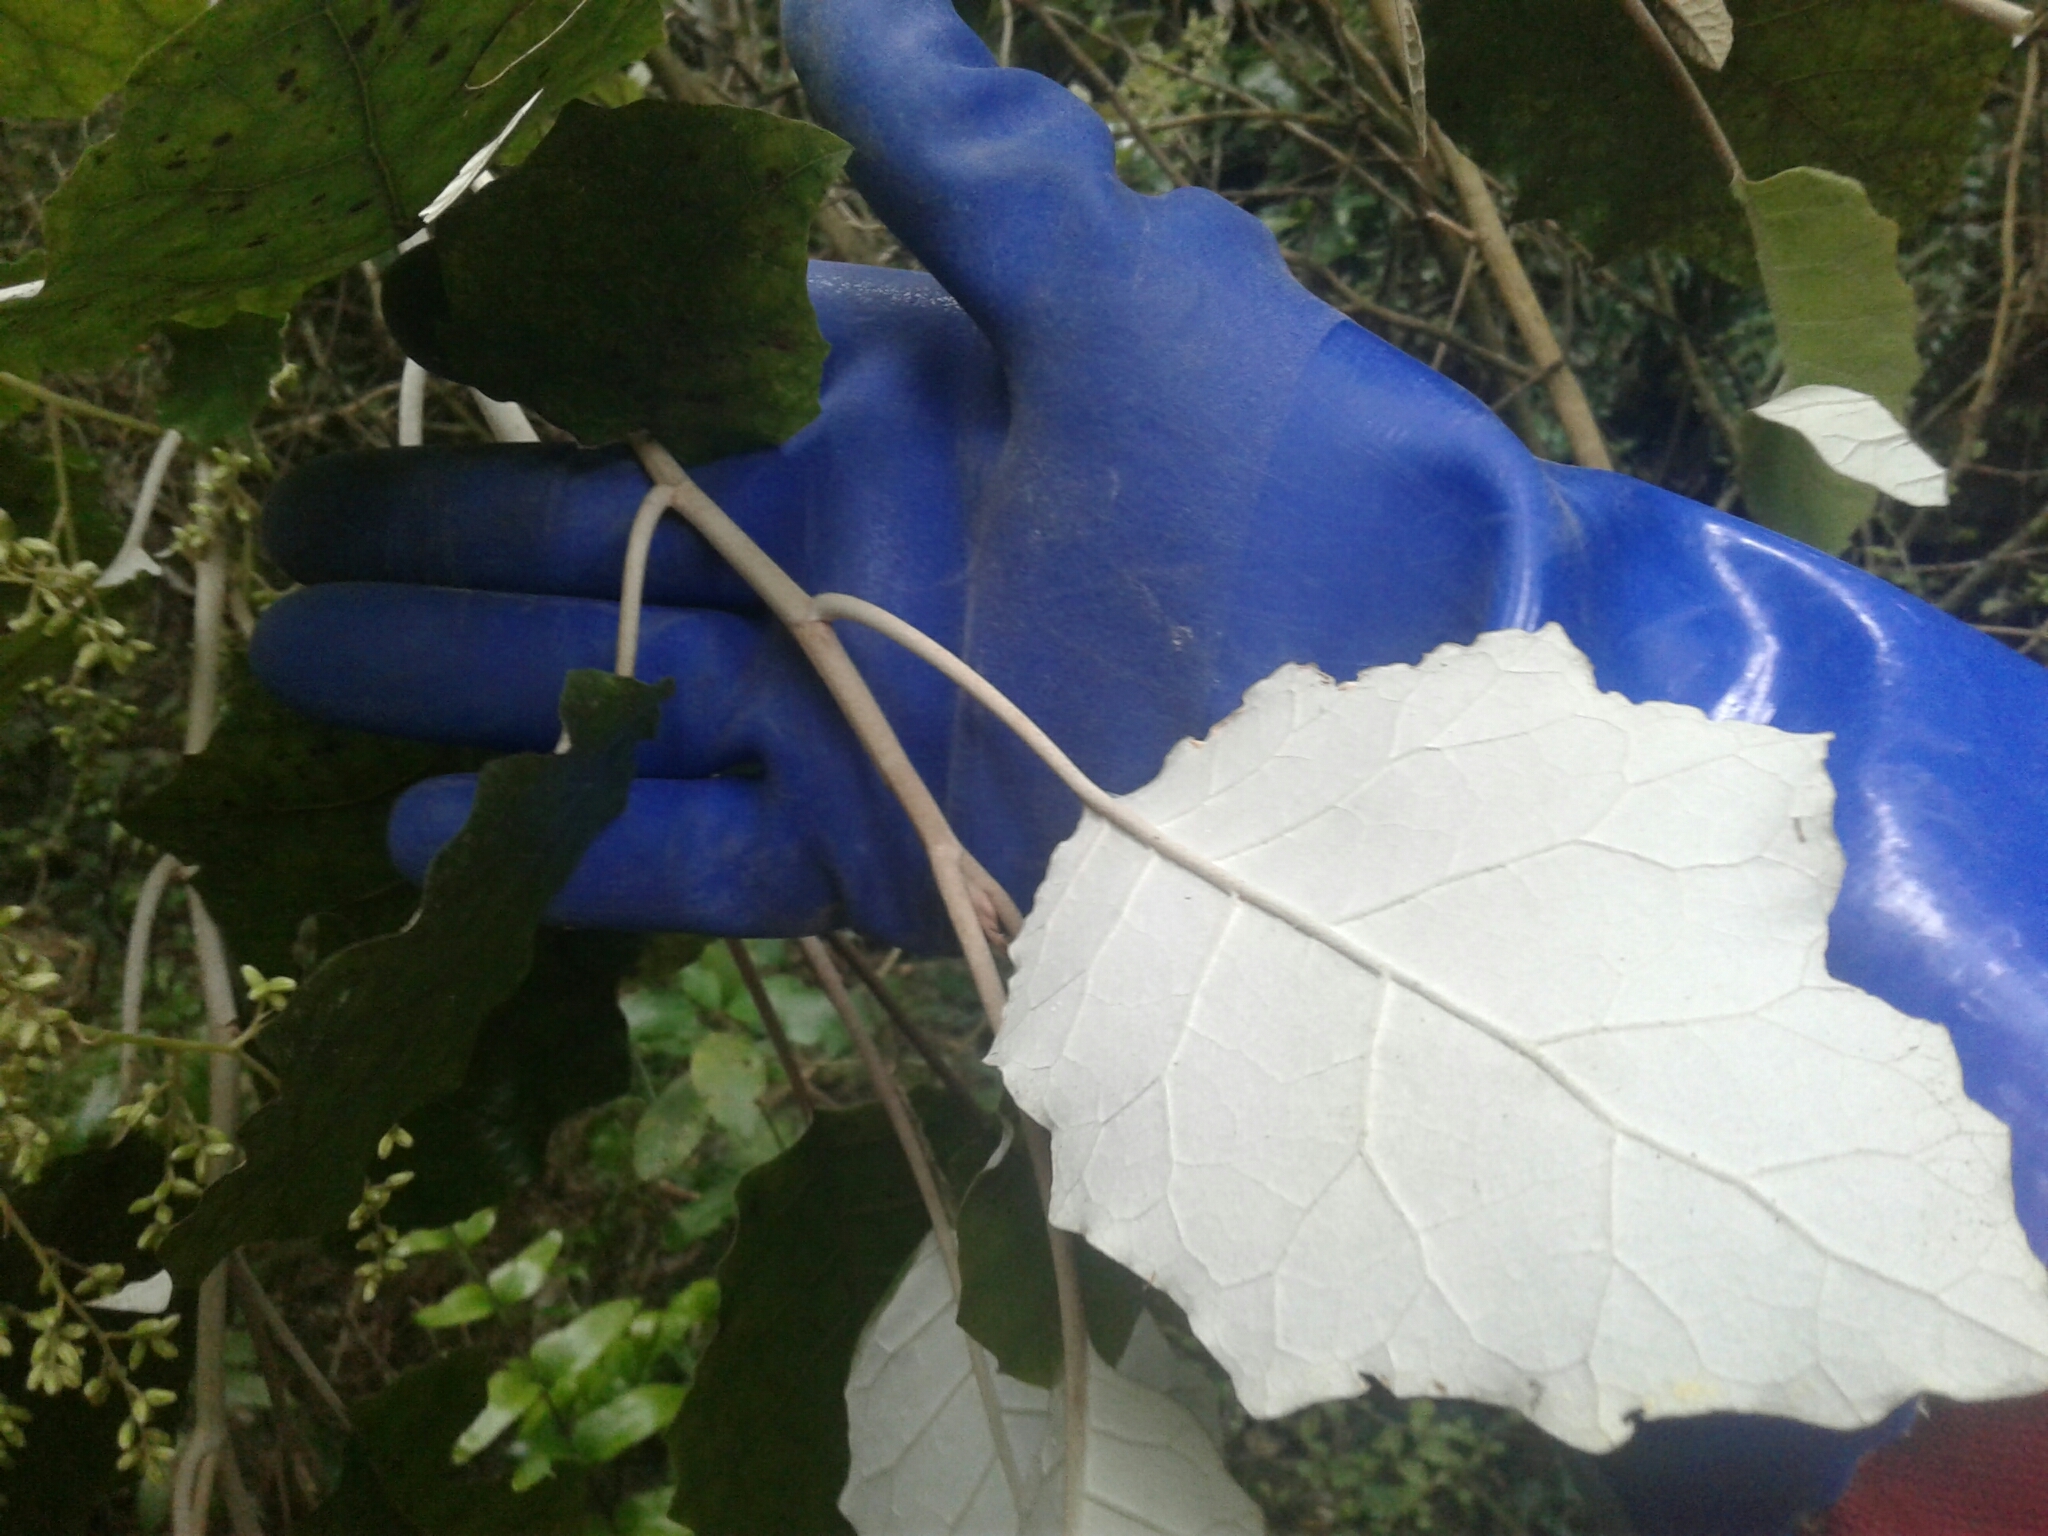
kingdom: Plantae
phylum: Tracheophyta
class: Magnoliopsida
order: Asterales
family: Asteraceae
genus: Brachyglottis
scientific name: Brachyglottis repanda
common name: Hedge ragwort
